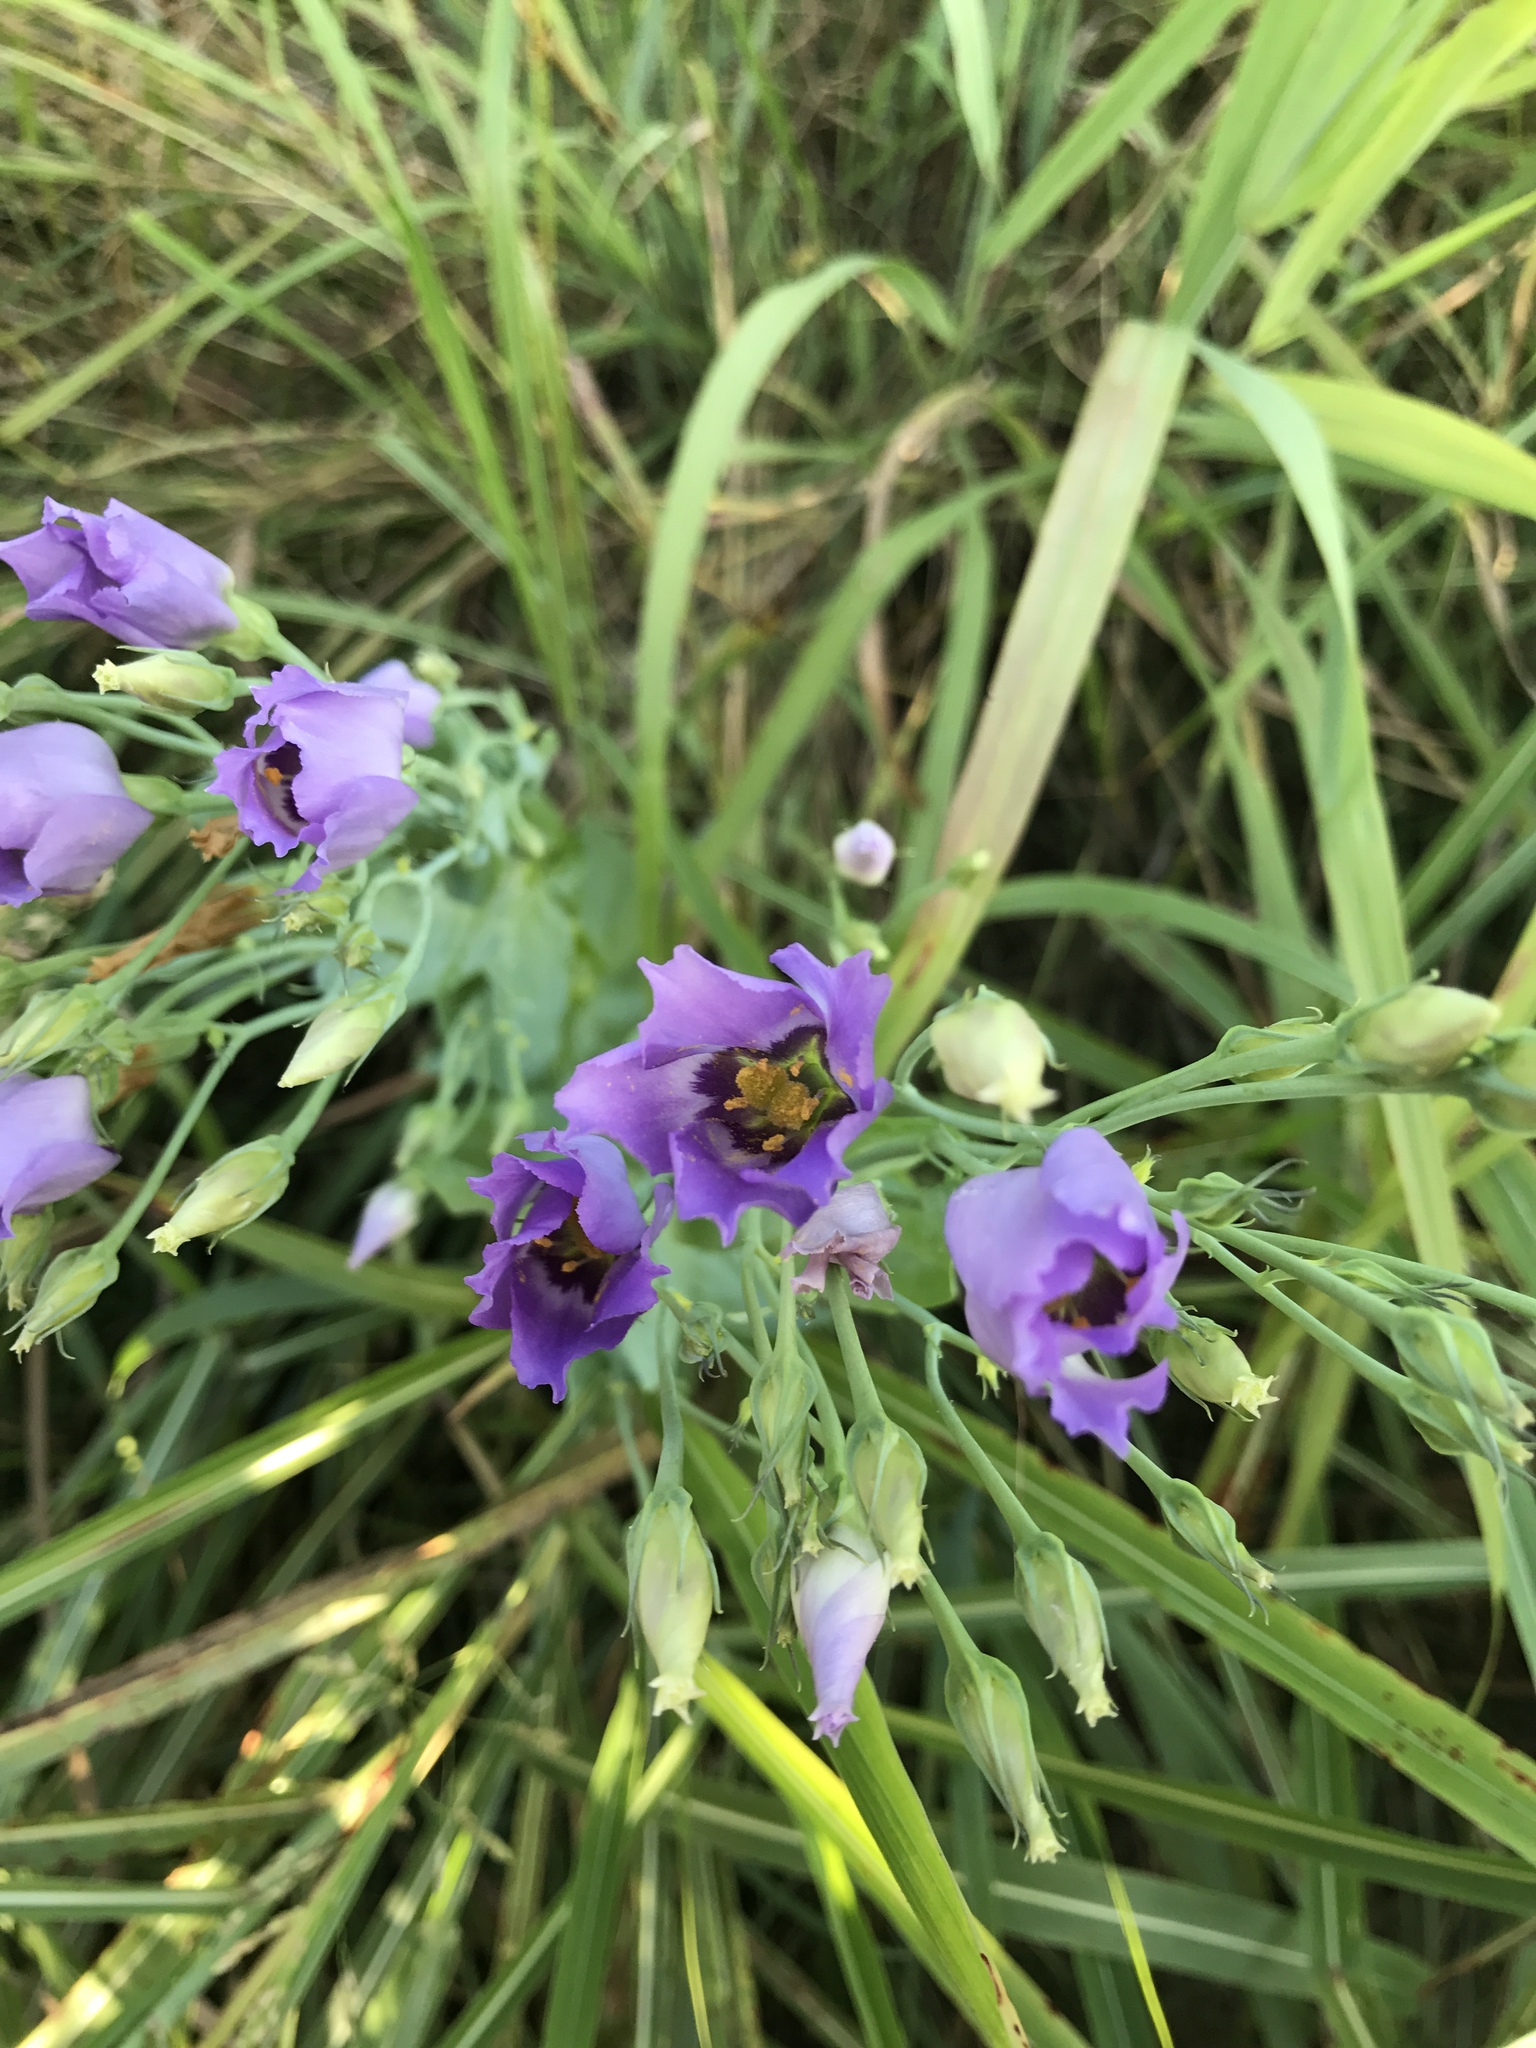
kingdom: Plantae
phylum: Tracheophyta
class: Magnoliopsida
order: Gentianales
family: Gentianaceae
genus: Eustoma
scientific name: Eustoma exaltatum
